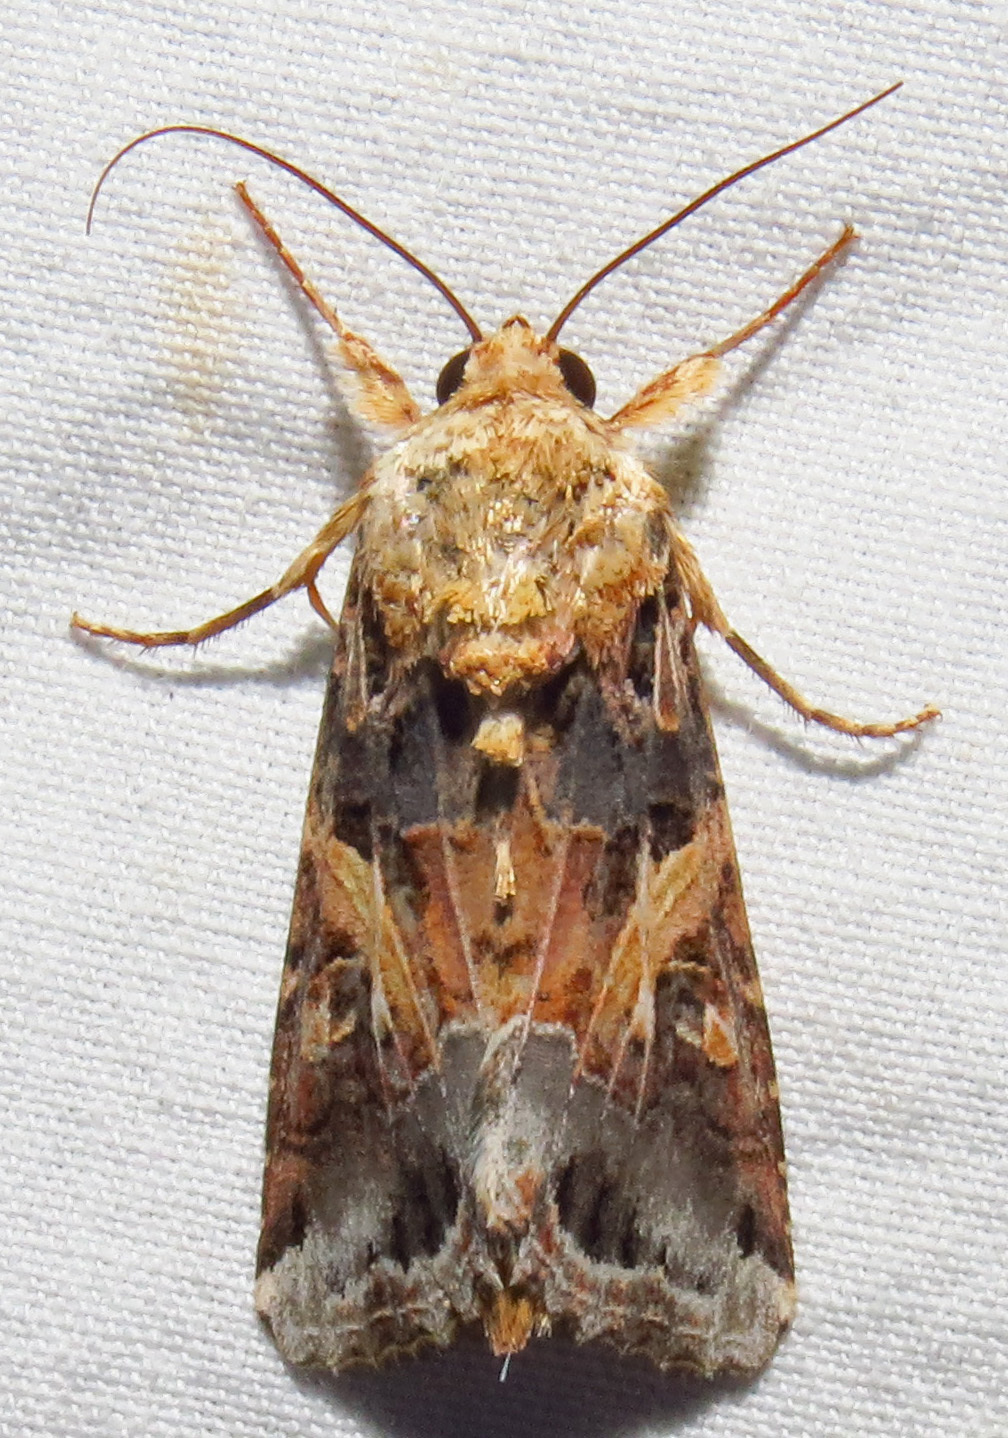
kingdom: Animalia
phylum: Arthropoda
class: Insecta
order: Lepidoptera
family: Noctuidae
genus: Spodoptera
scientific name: Spodoptera ornithogalli
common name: Yellow-striped armyworm
